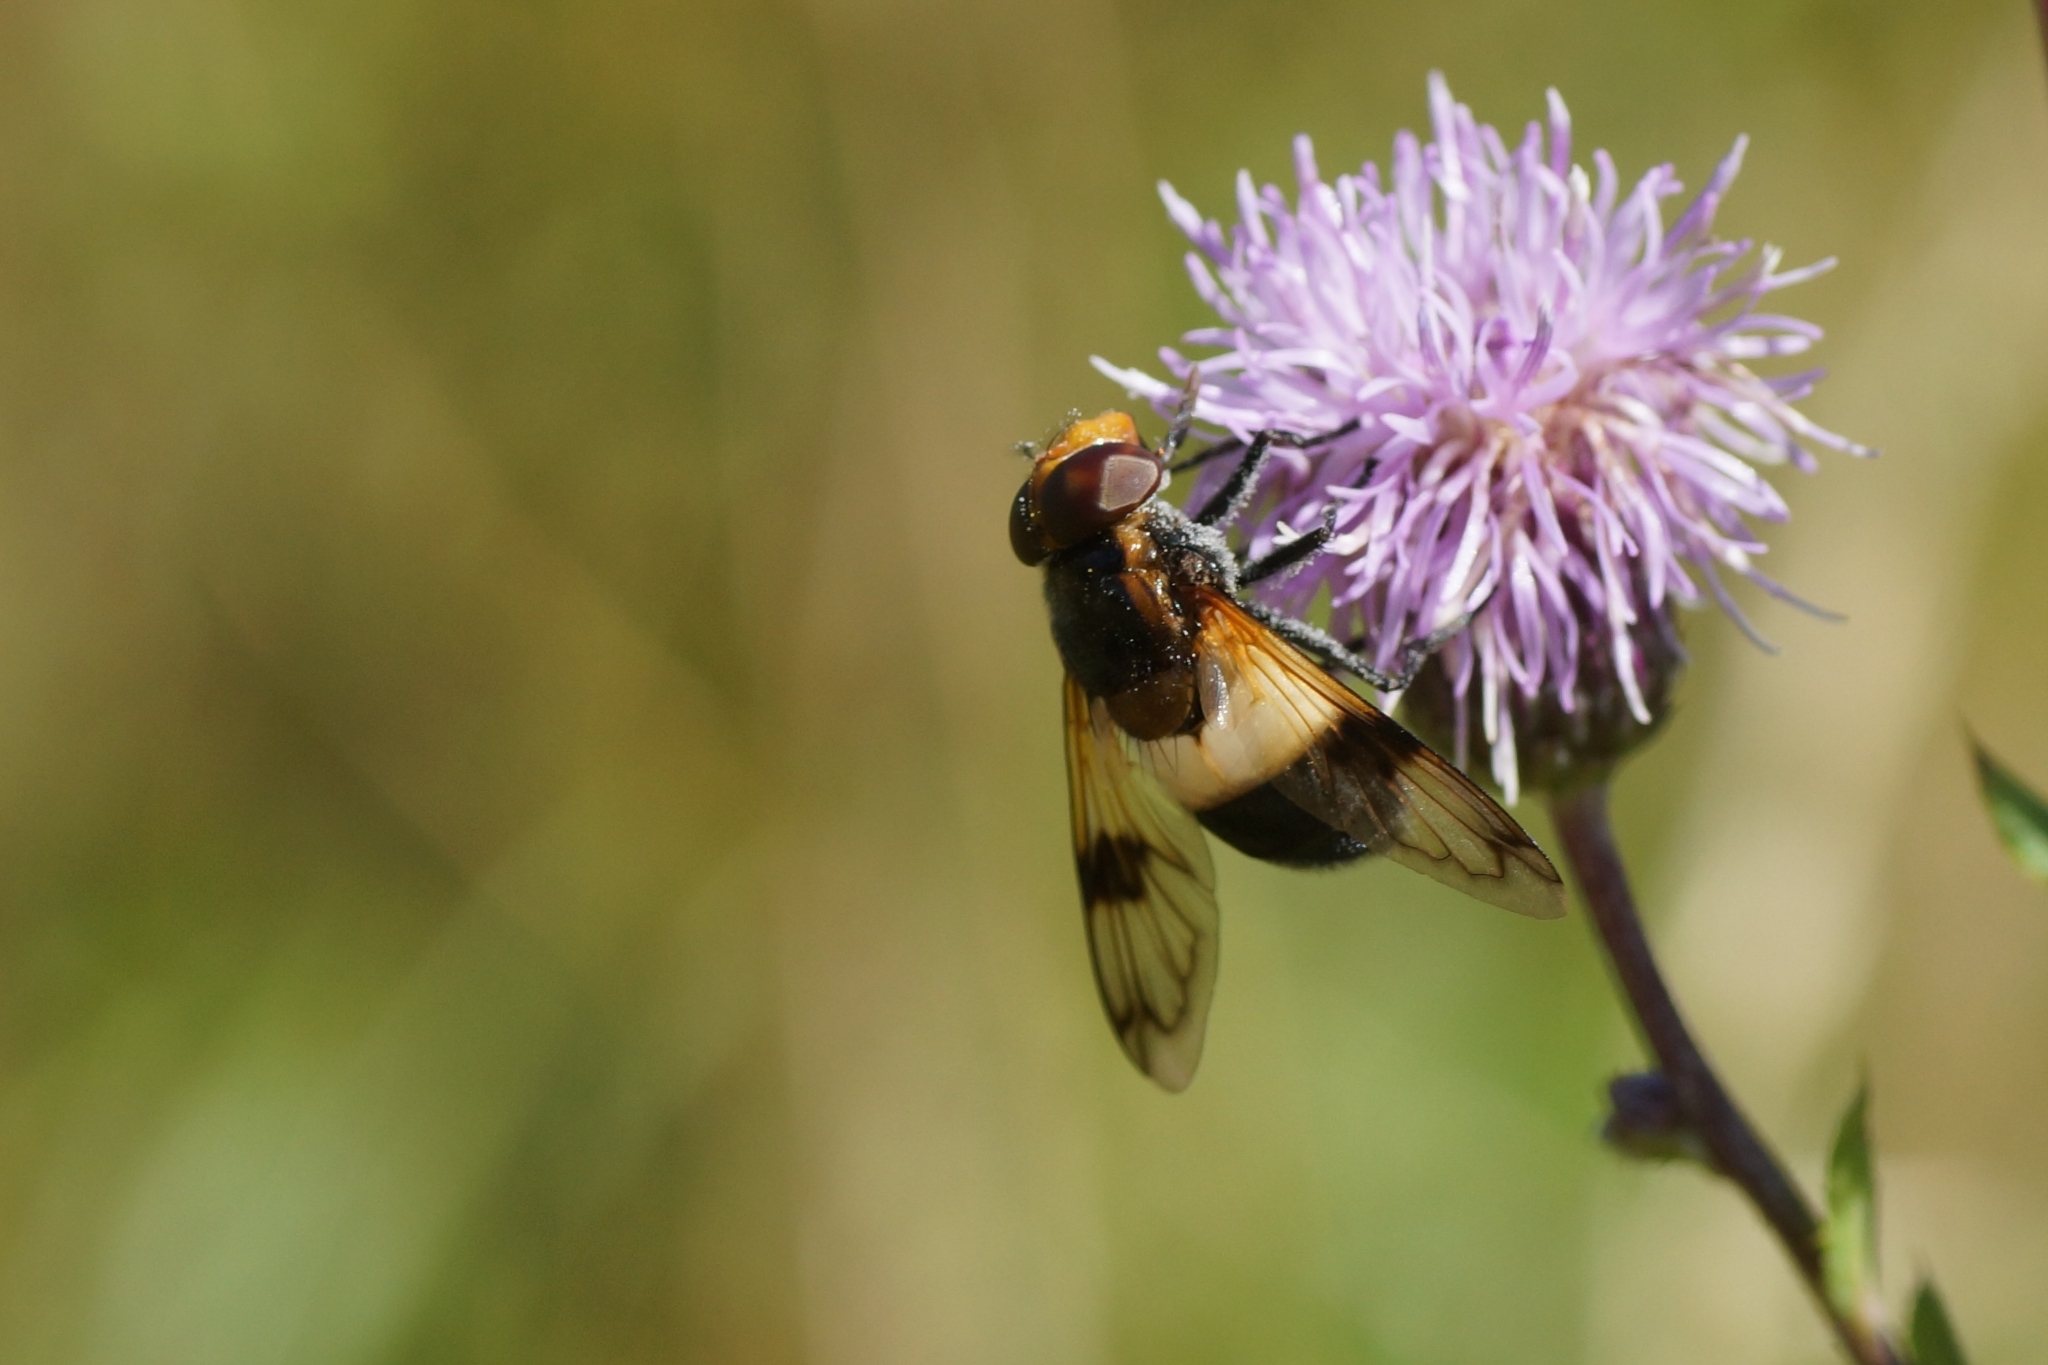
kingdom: Animalia
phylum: Arthropoda
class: Insecta
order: Diptera
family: Syrphidae
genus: Volucella
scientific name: Volucella pellucens
